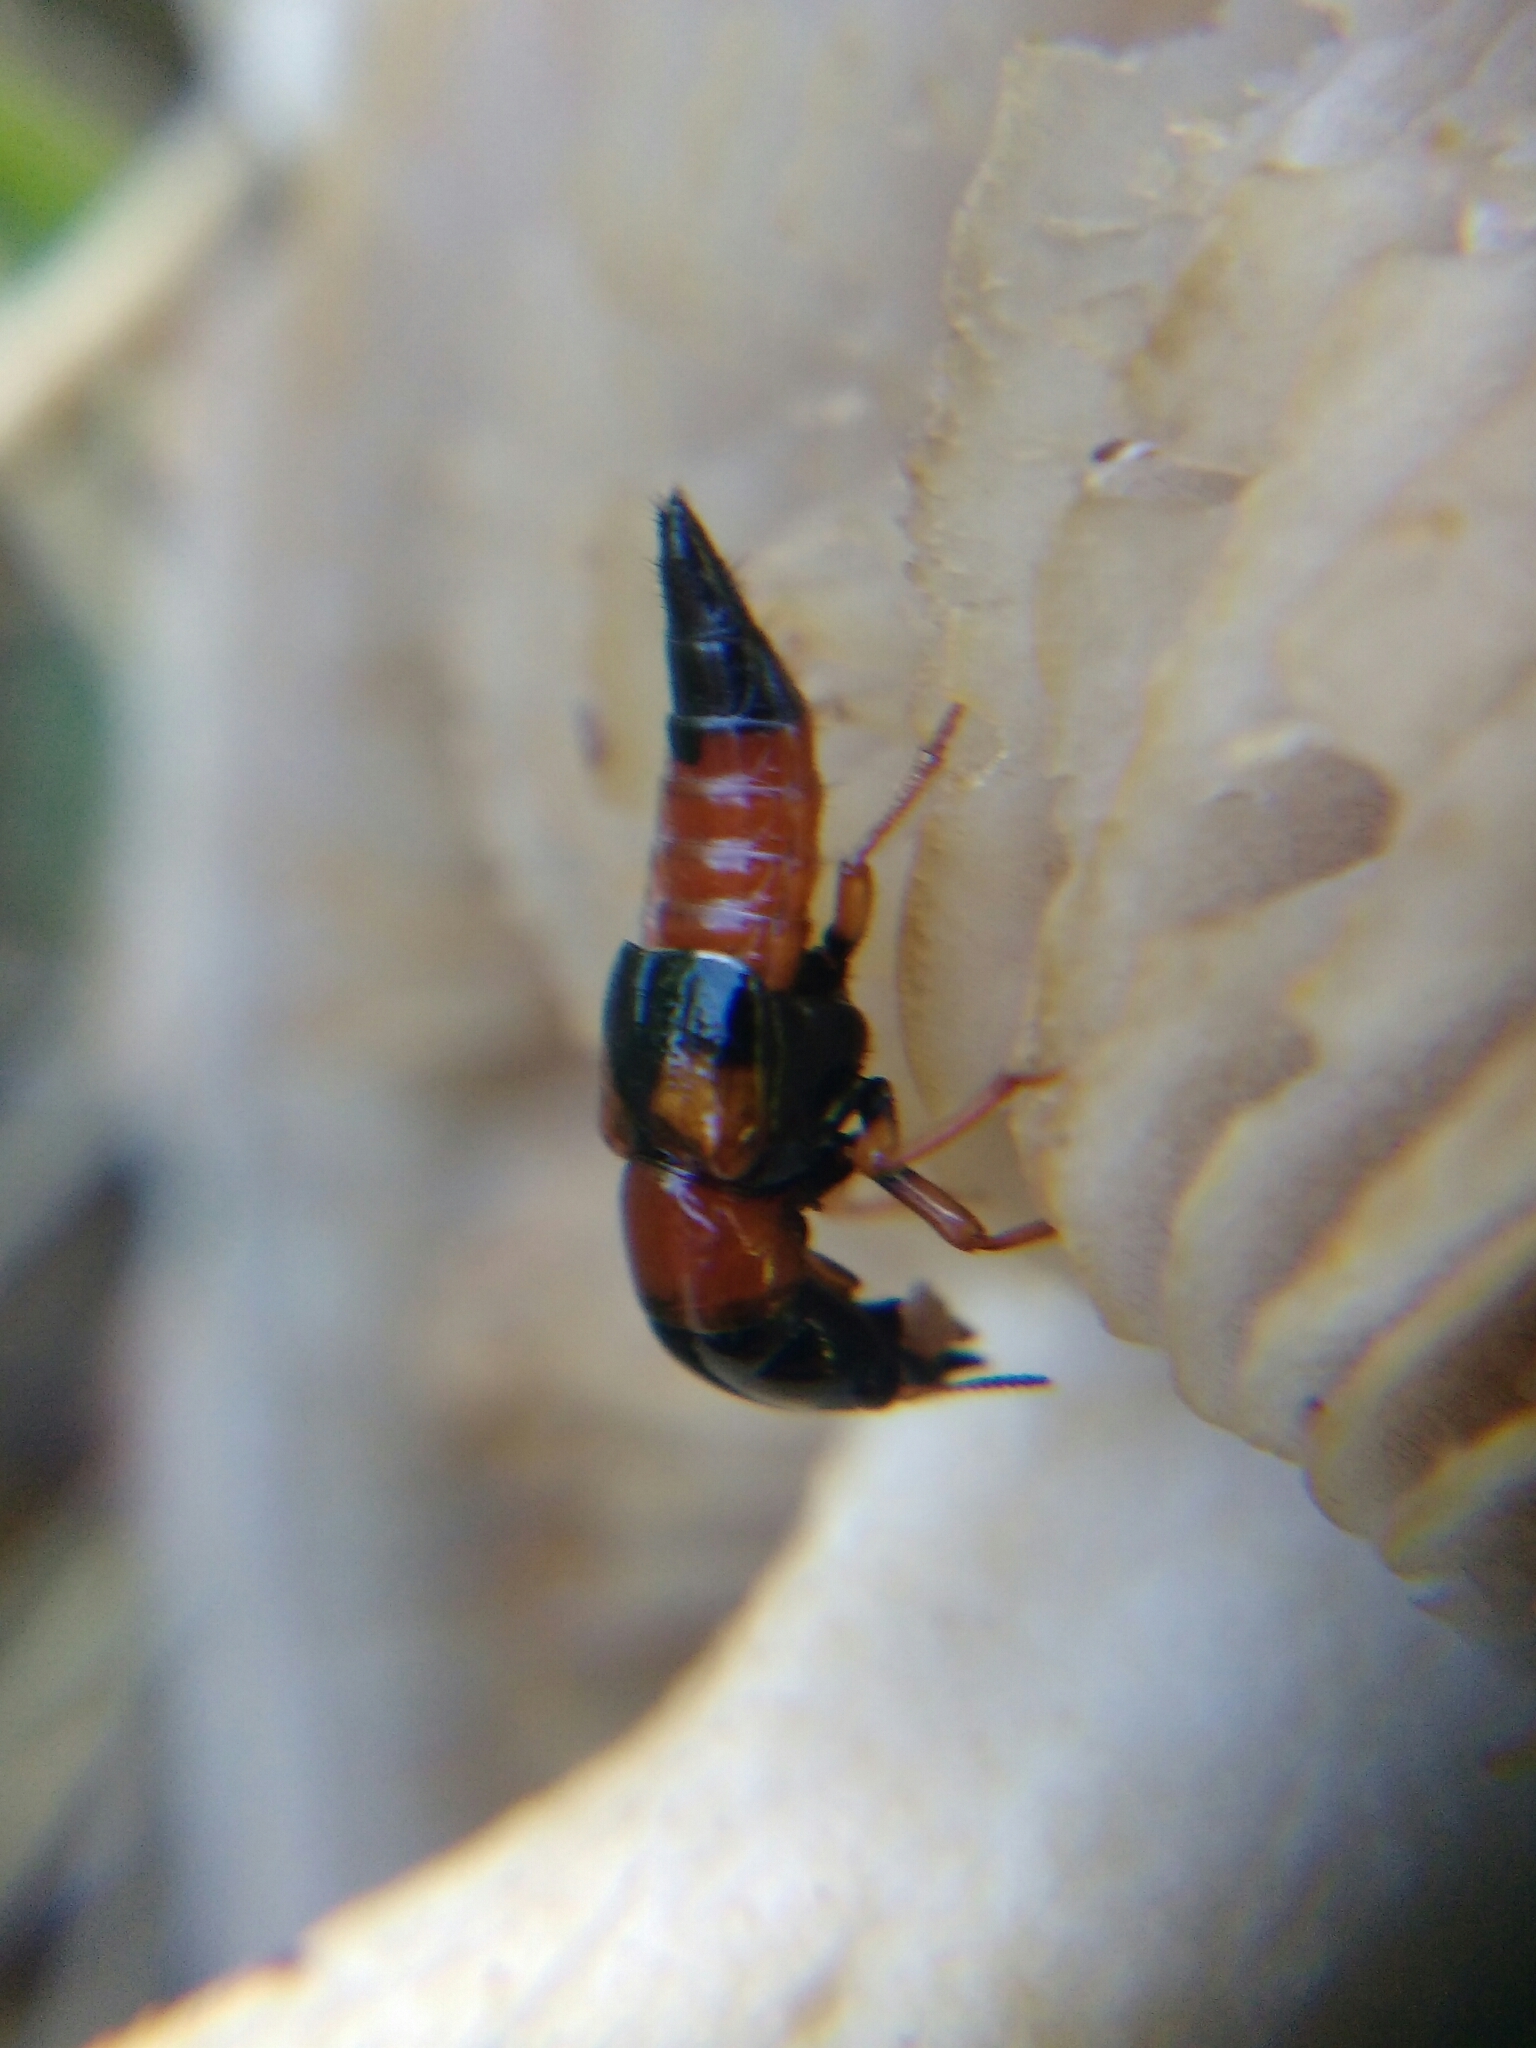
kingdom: Animalia
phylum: Arthropoda
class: Insecta
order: Coleoptera
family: Staphylinidae
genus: Oxyporus
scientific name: Oxyporus rufus
